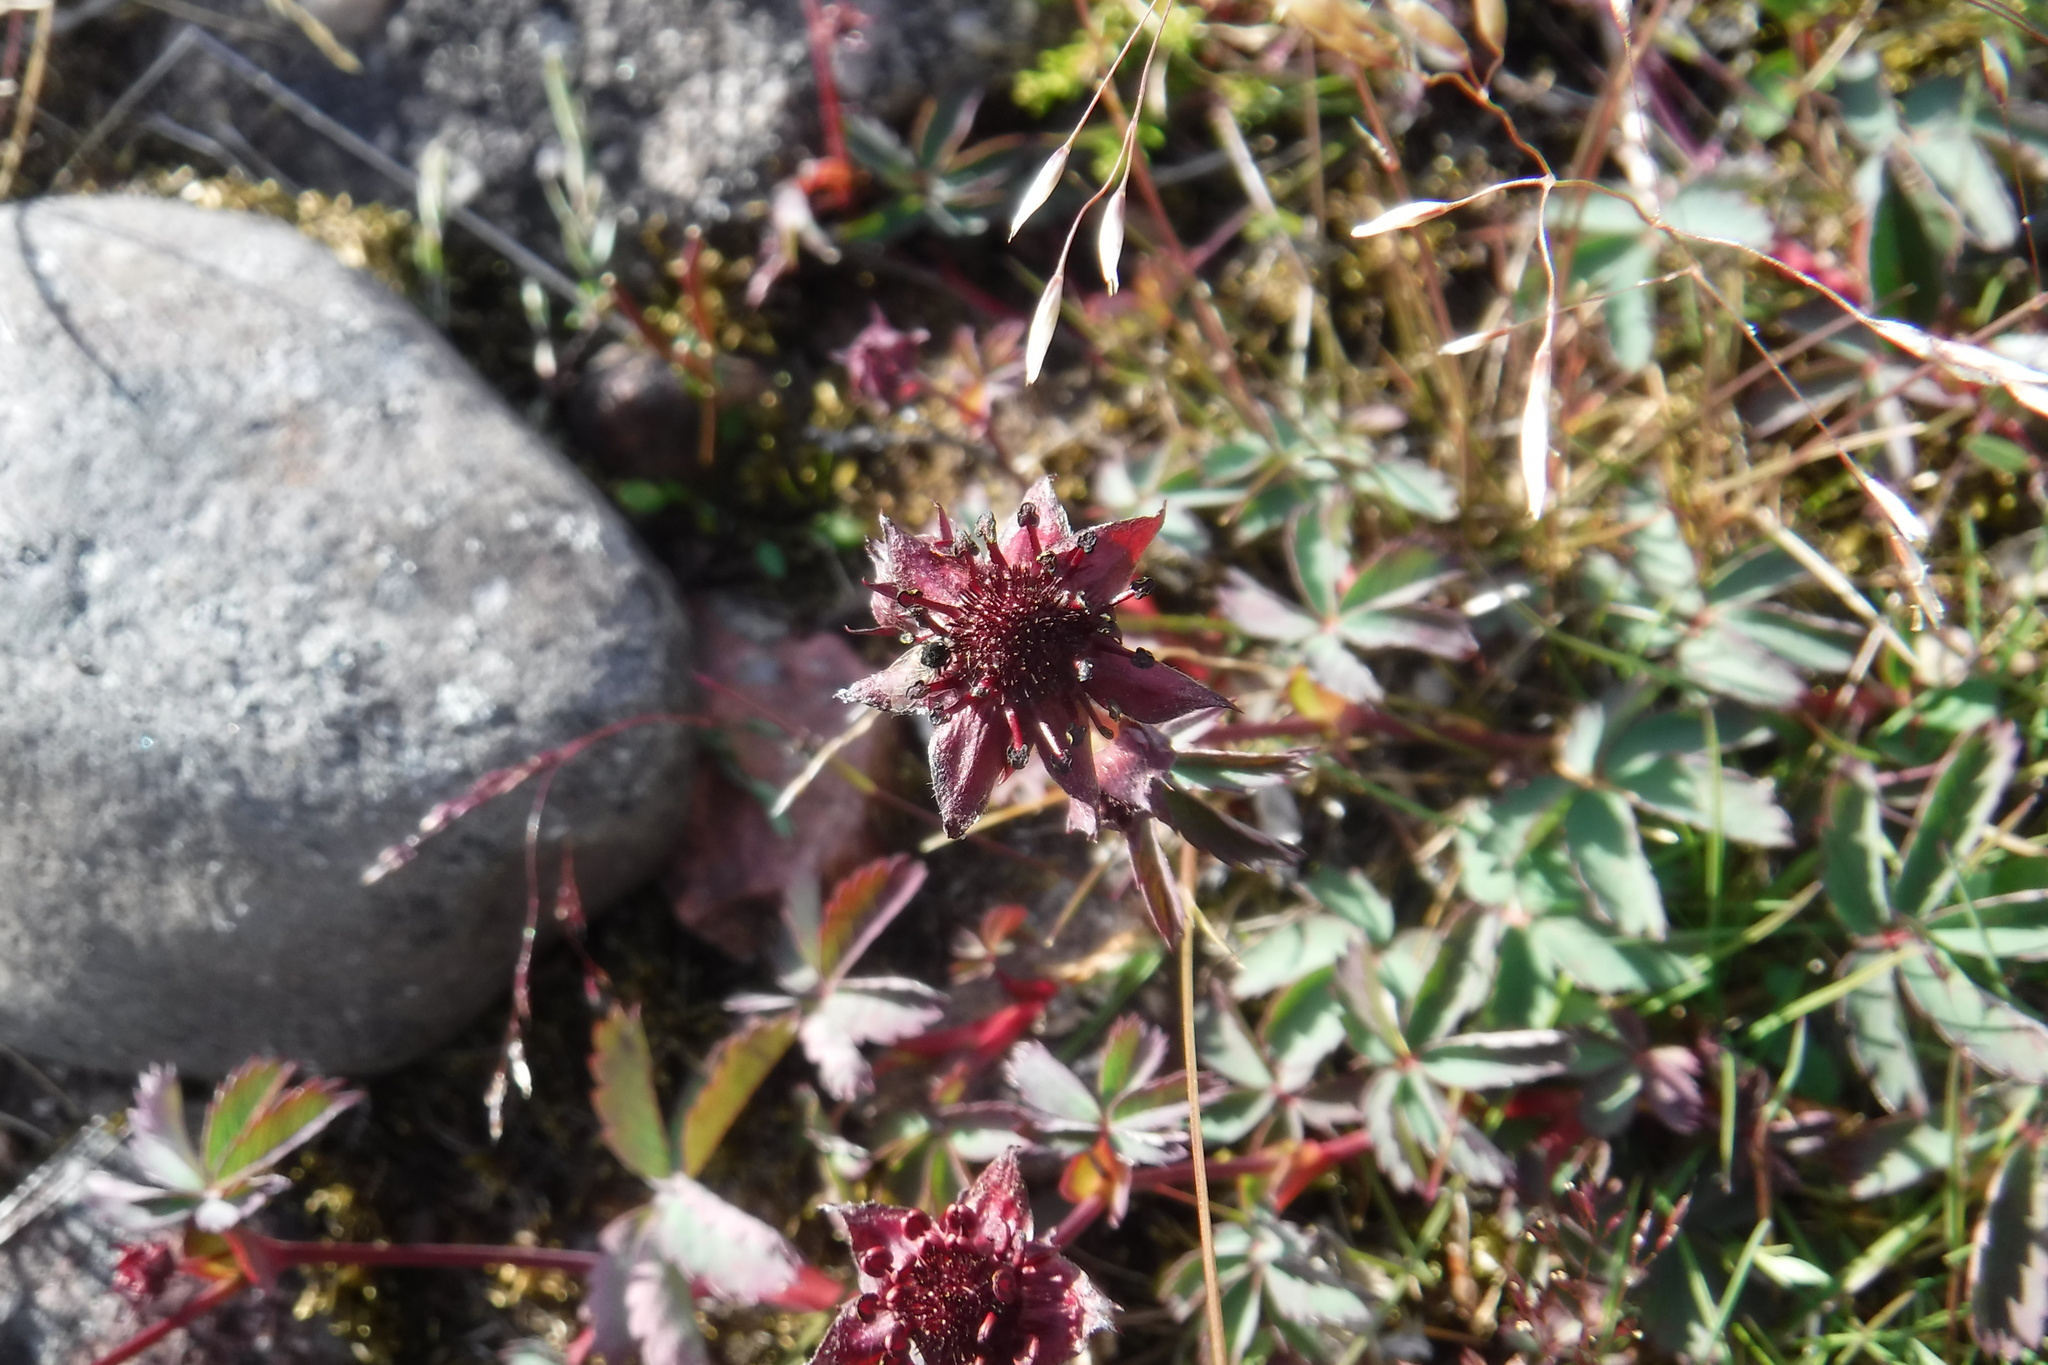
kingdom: Plantae
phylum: Tracheophyta
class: Magnoliopsida
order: Rosales
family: Rosaceae
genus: Comarum
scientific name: Comarum palustre
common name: Marsh cinquefoil
